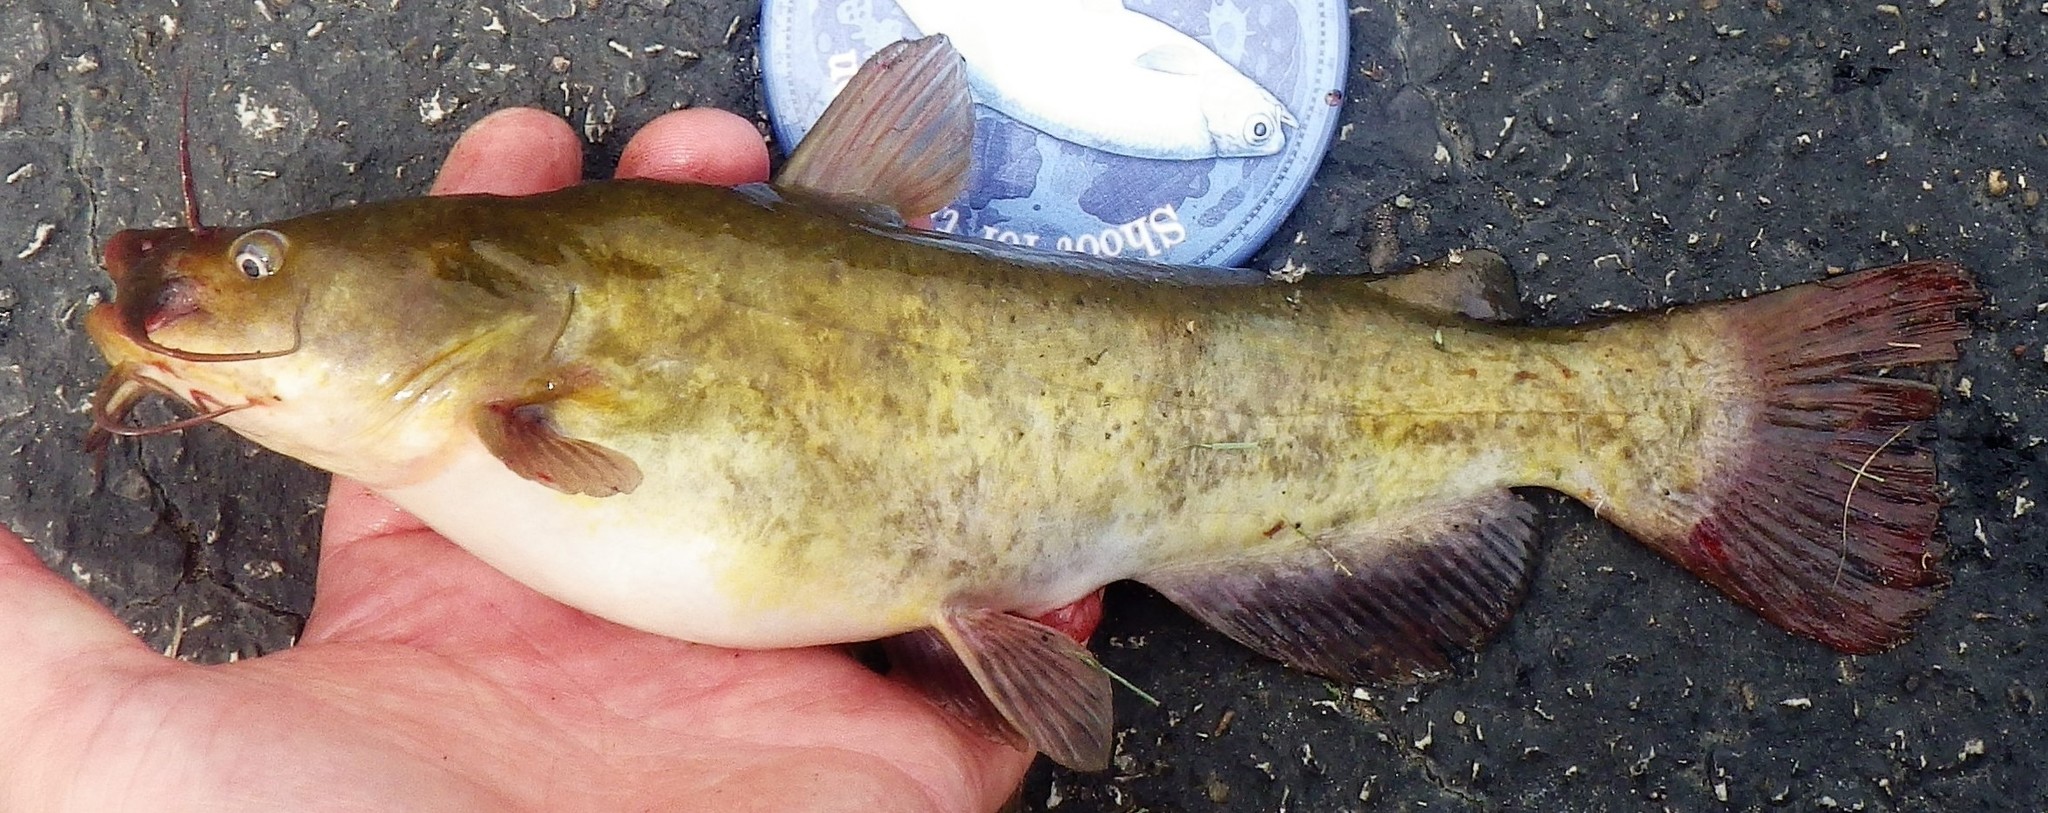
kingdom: Animalia
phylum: Chordata
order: Siluriformes
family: Ictaluridae
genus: Ameiurus
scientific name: Ameiurus nebulosus
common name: Brown bullhead
